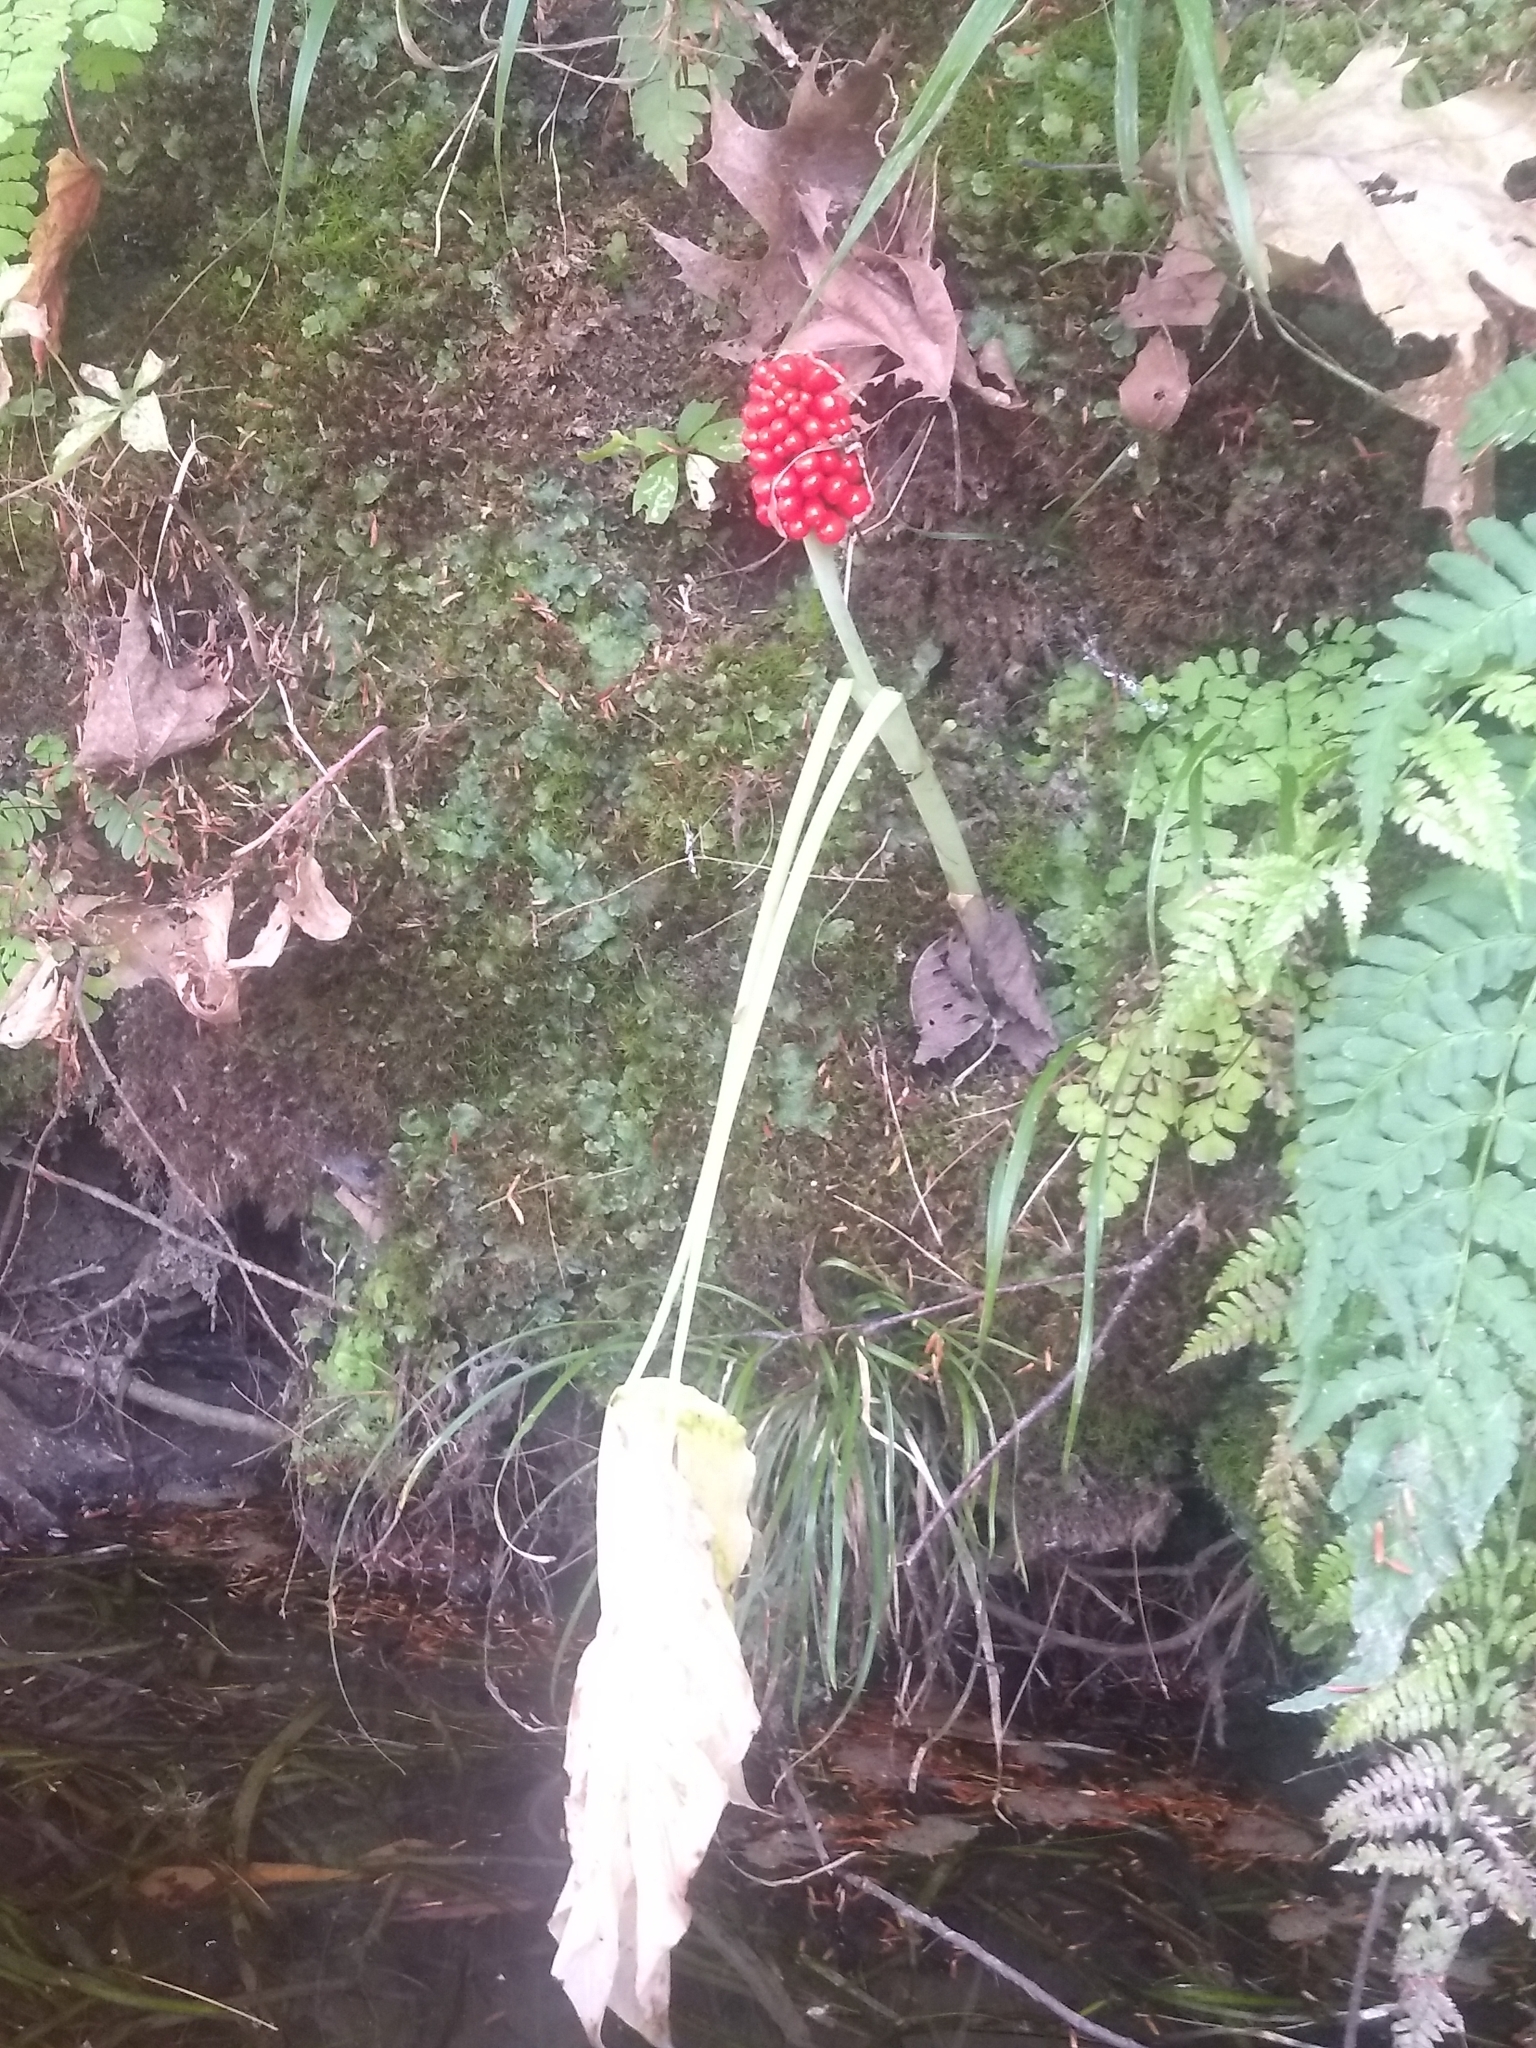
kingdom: Plantae
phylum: Tracheophyta
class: Liliopsida
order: Alismatales
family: Araceae
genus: Arisaema
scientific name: Arisaema triphyllum
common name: Jack-in-the-pulpit
